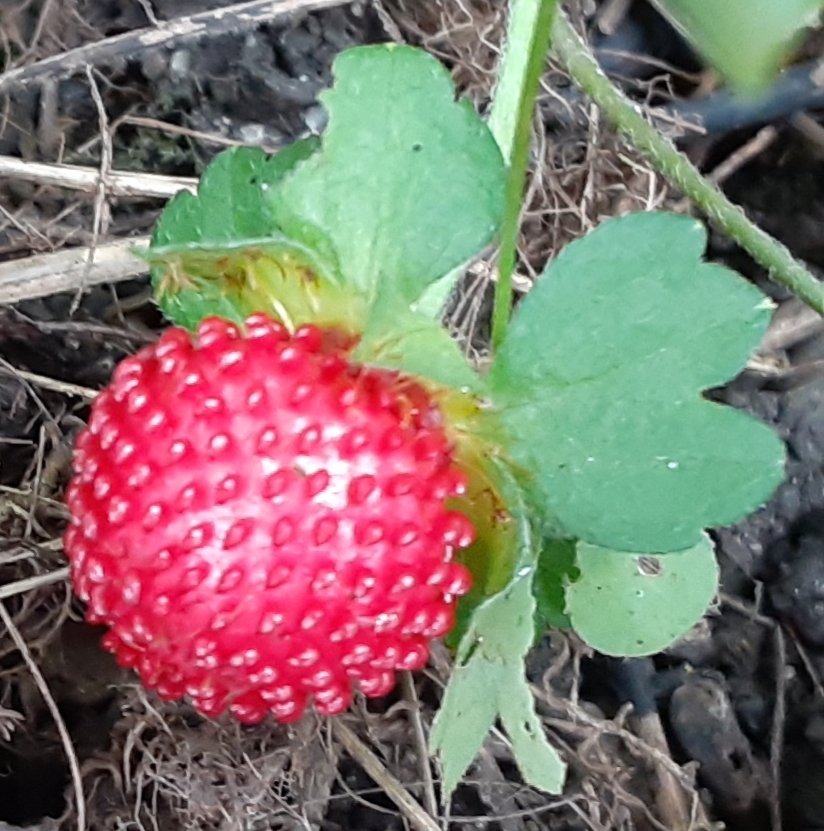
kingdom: Plantae
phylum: Tracheophyta
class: Magnoliopsida
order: Rosales
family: Rosaceae
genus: Potentilla
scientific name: Potentilla indica
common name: Yellow-flowered strawberry
